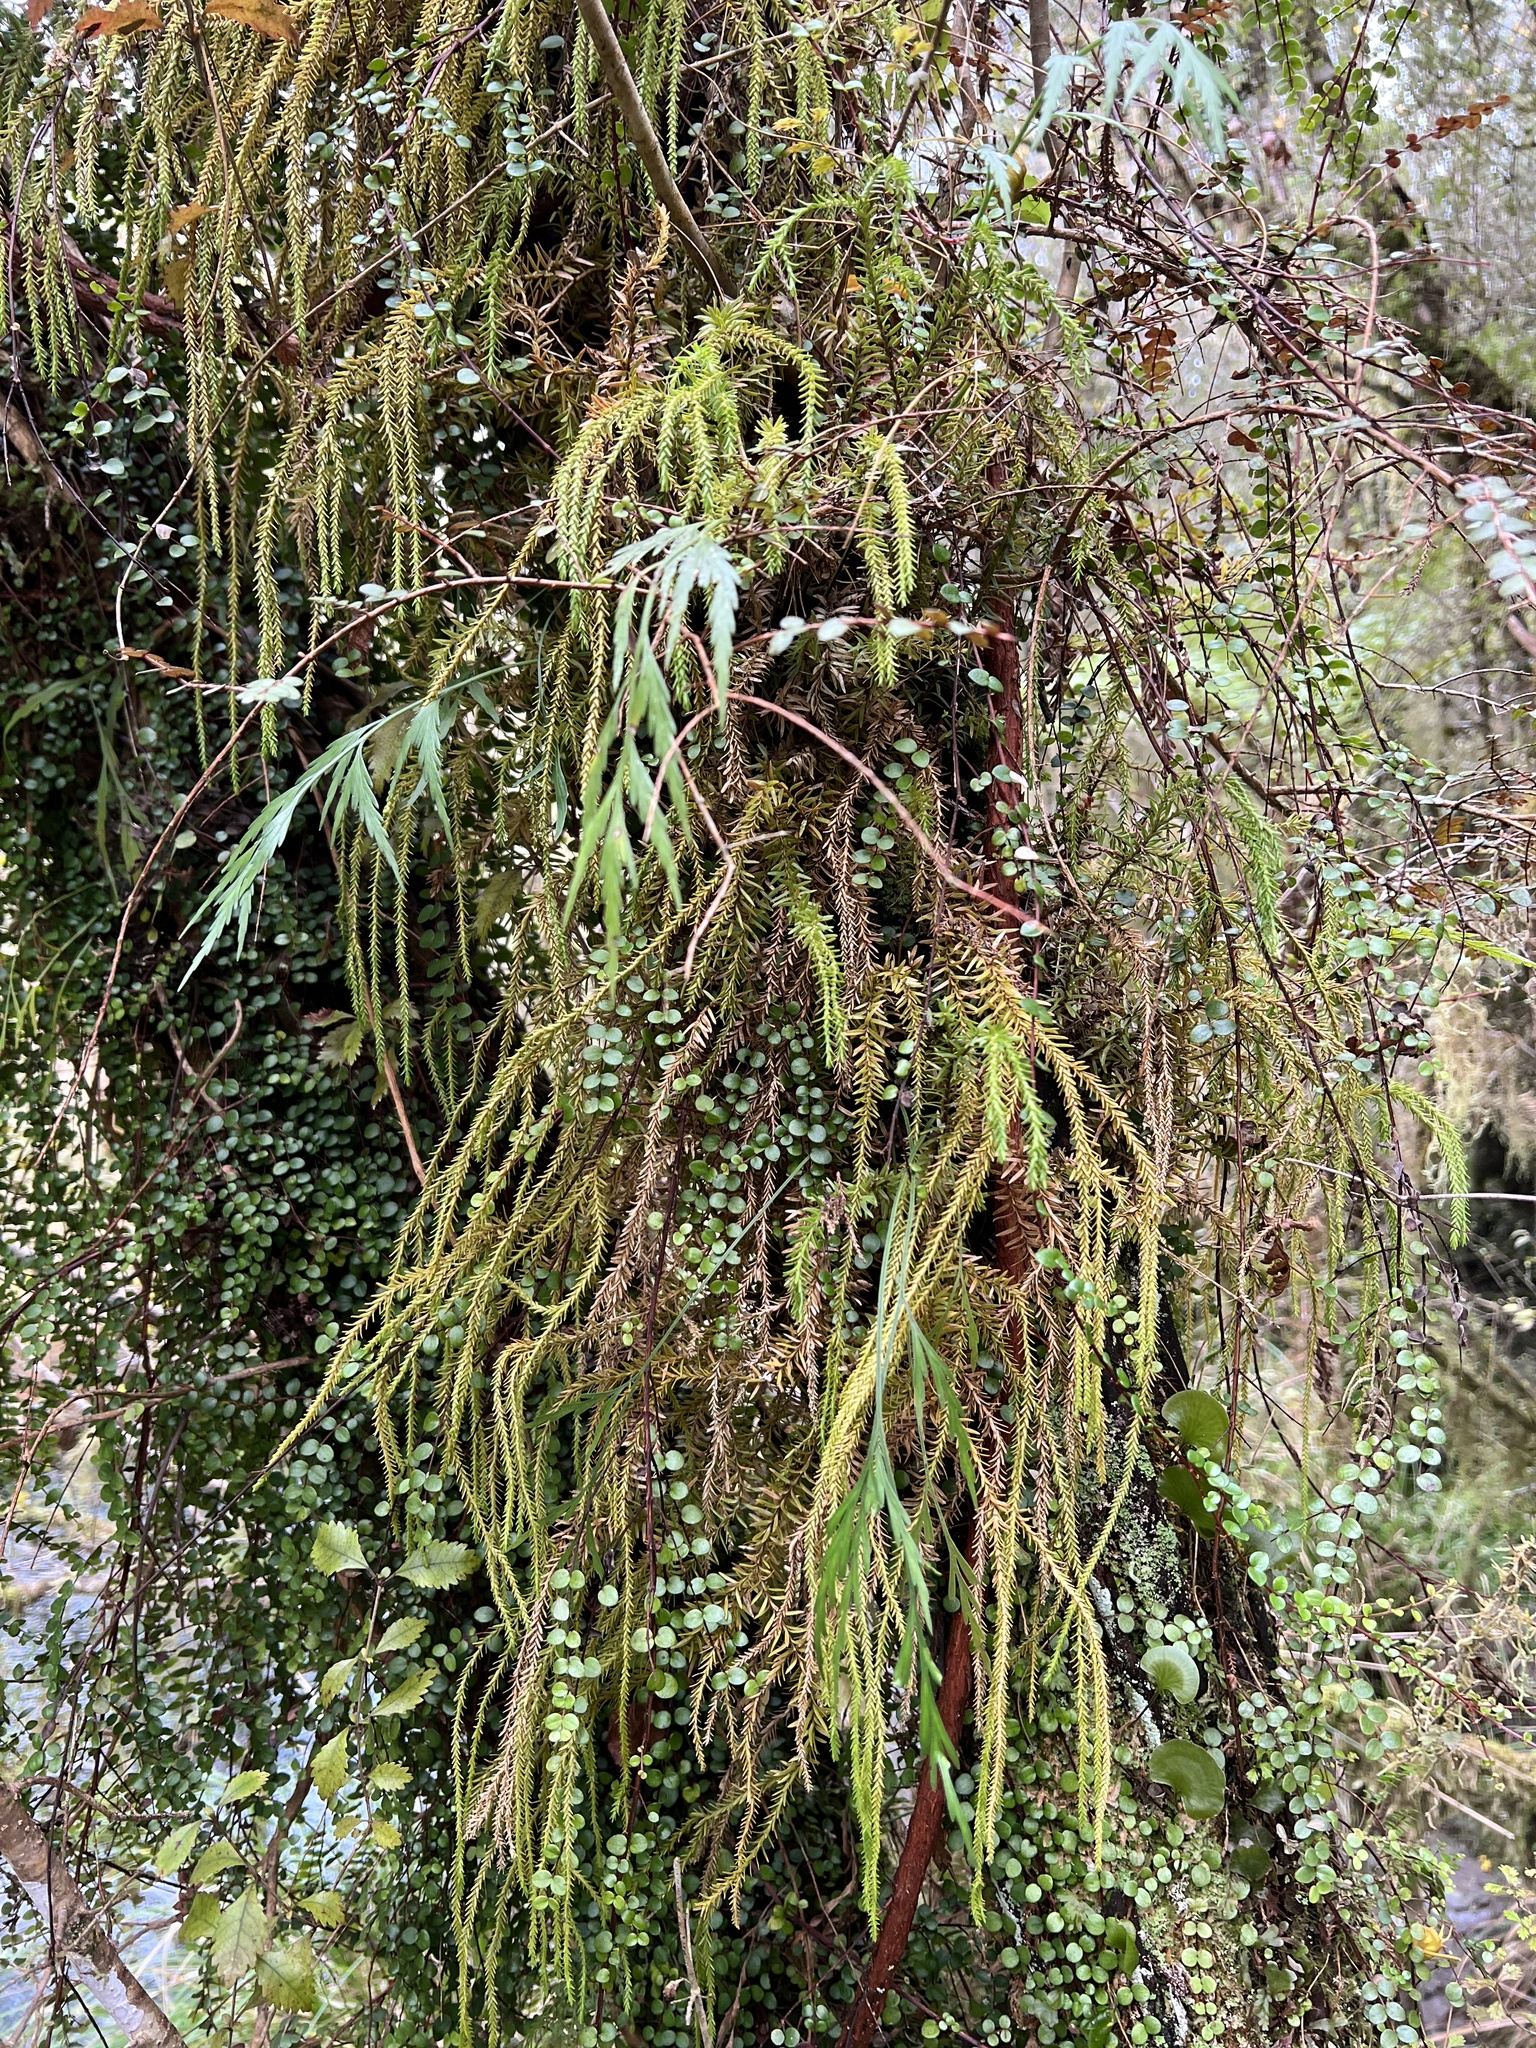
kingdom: Plantae
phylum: Tracheophyta
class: Lycopodiopsida
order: Lycopodiales
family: Lycopodiaceae
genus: Phlegmariurus
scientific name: Phlegmariurus varius
